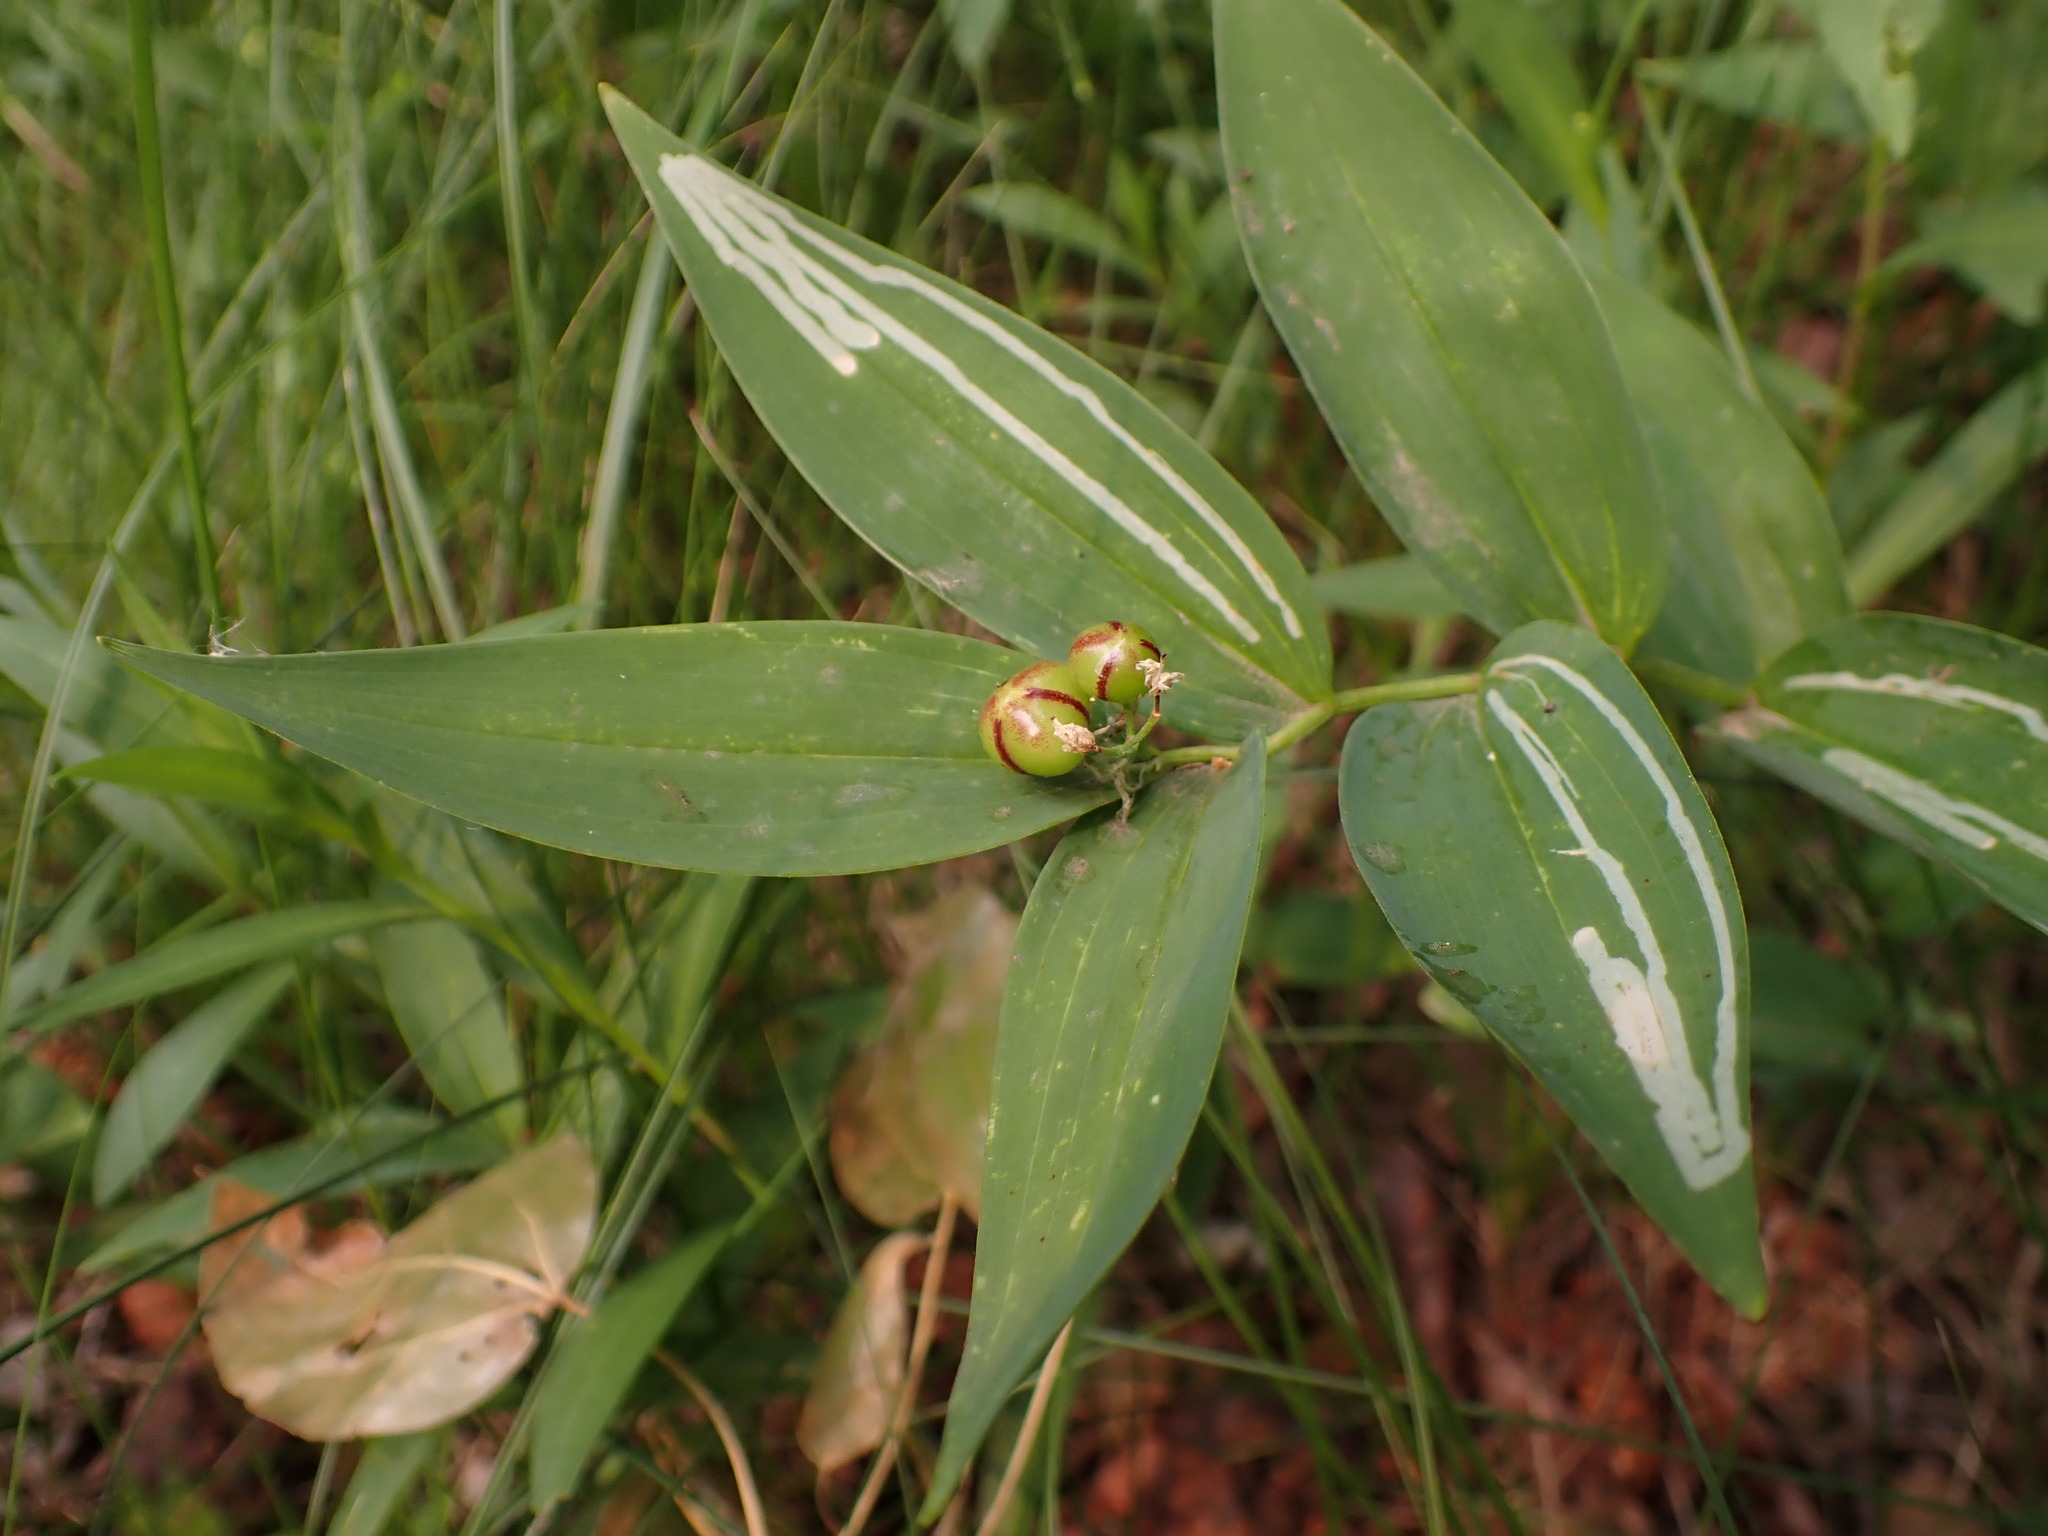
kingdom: Plantae
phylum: Tracheophyta
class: Liliopsida
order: Asparagales
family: Asparagaceae
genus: Maianthemum
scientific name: Maianthemum stellatum
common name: Little false solomon's seal
